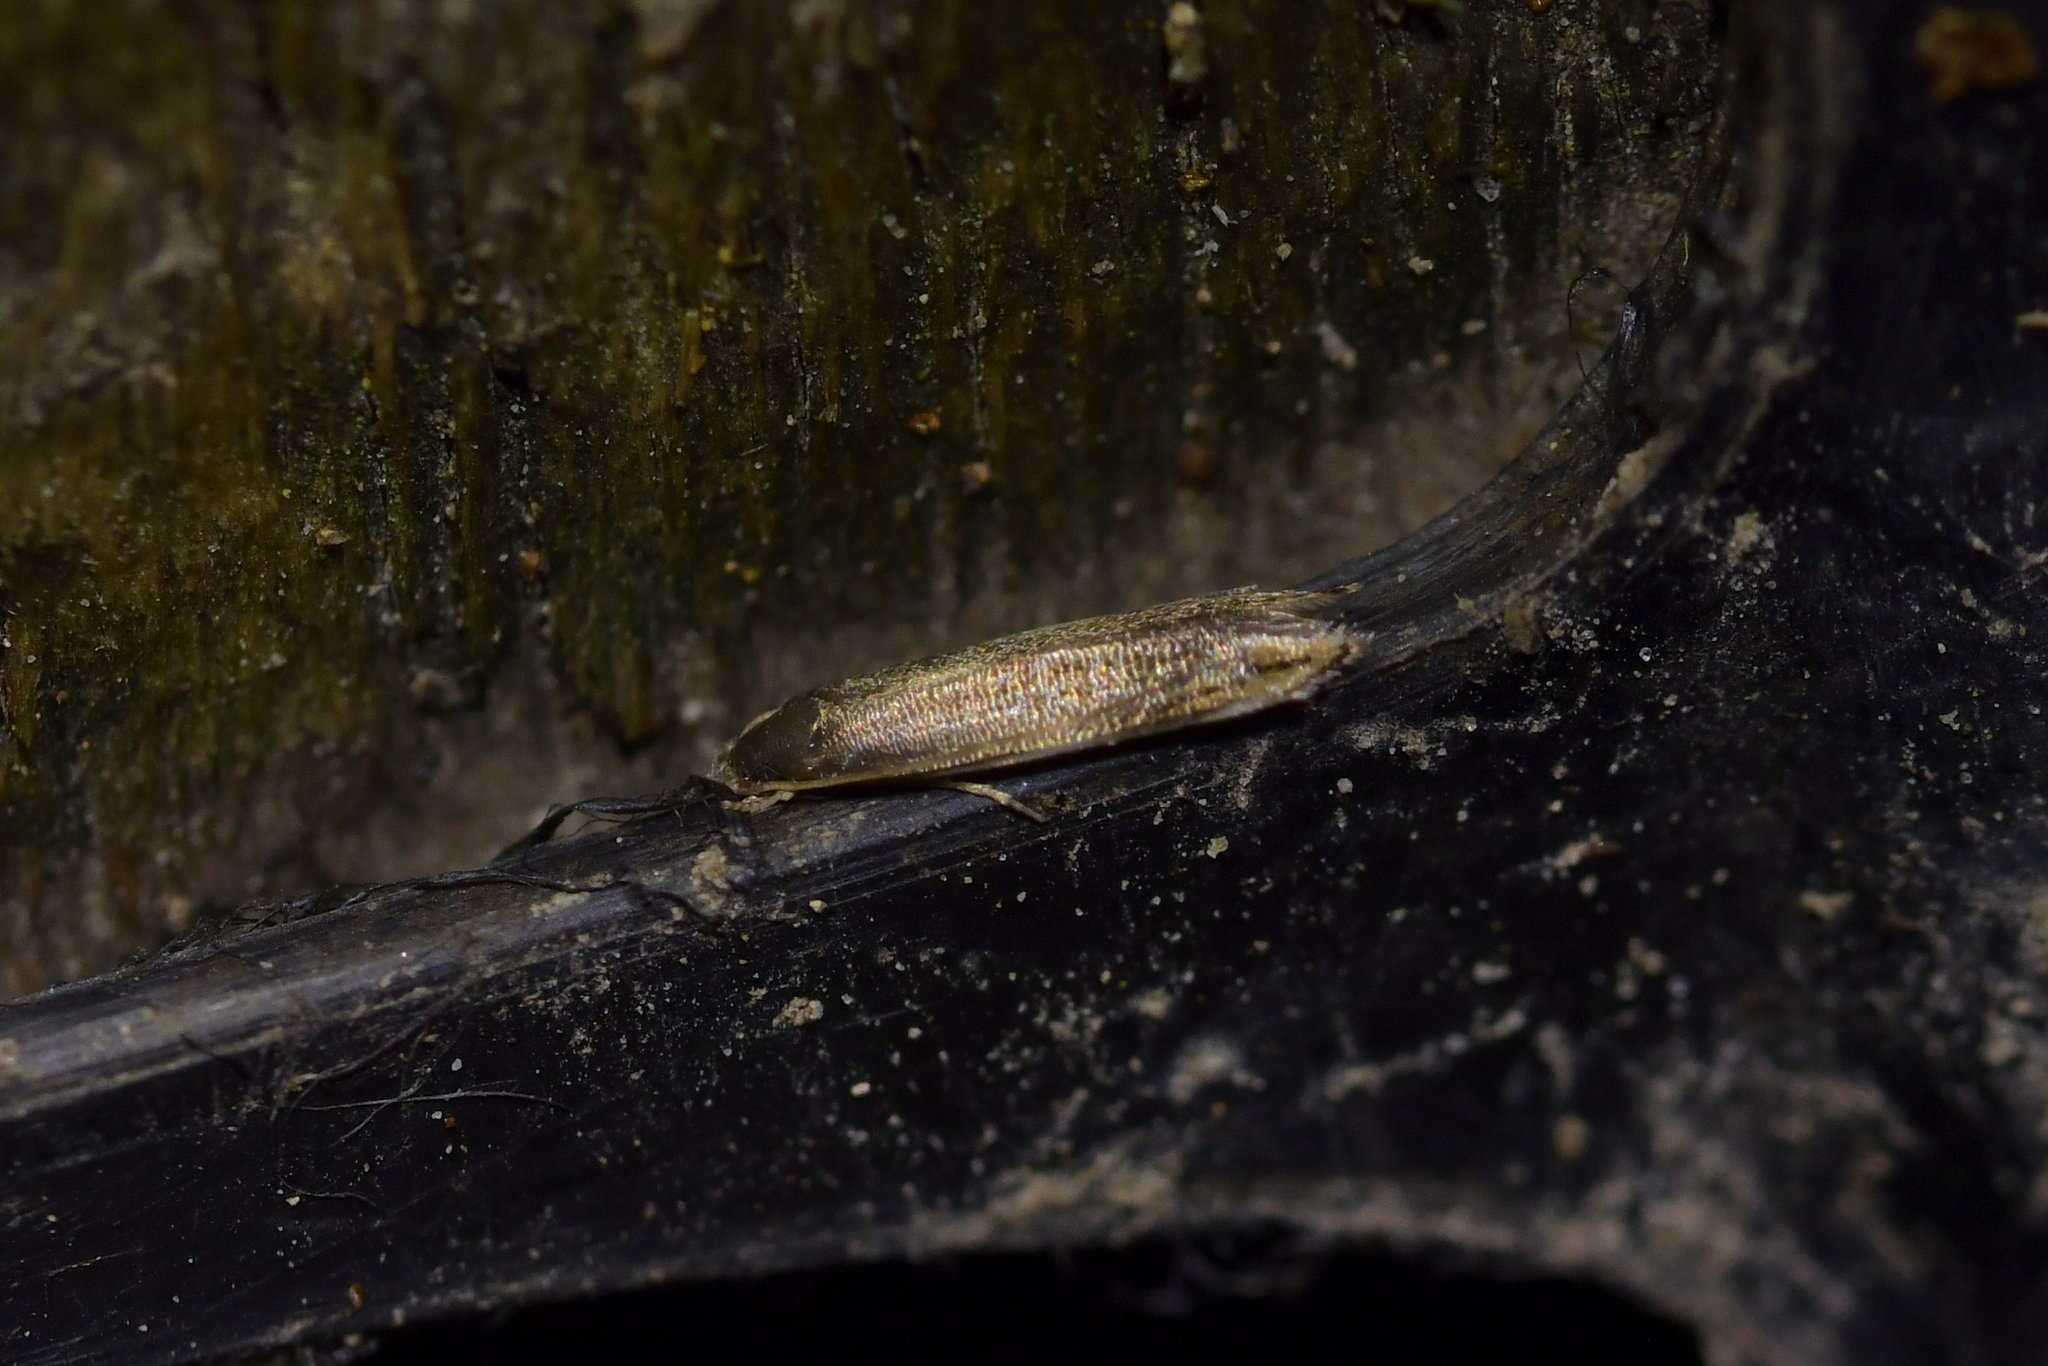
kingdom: Animalia
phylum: Arthropoda
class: Insecta
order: Lepidoptera
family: Tineidae
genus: Amphixystis
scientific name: Amphixystis hapsimacha
